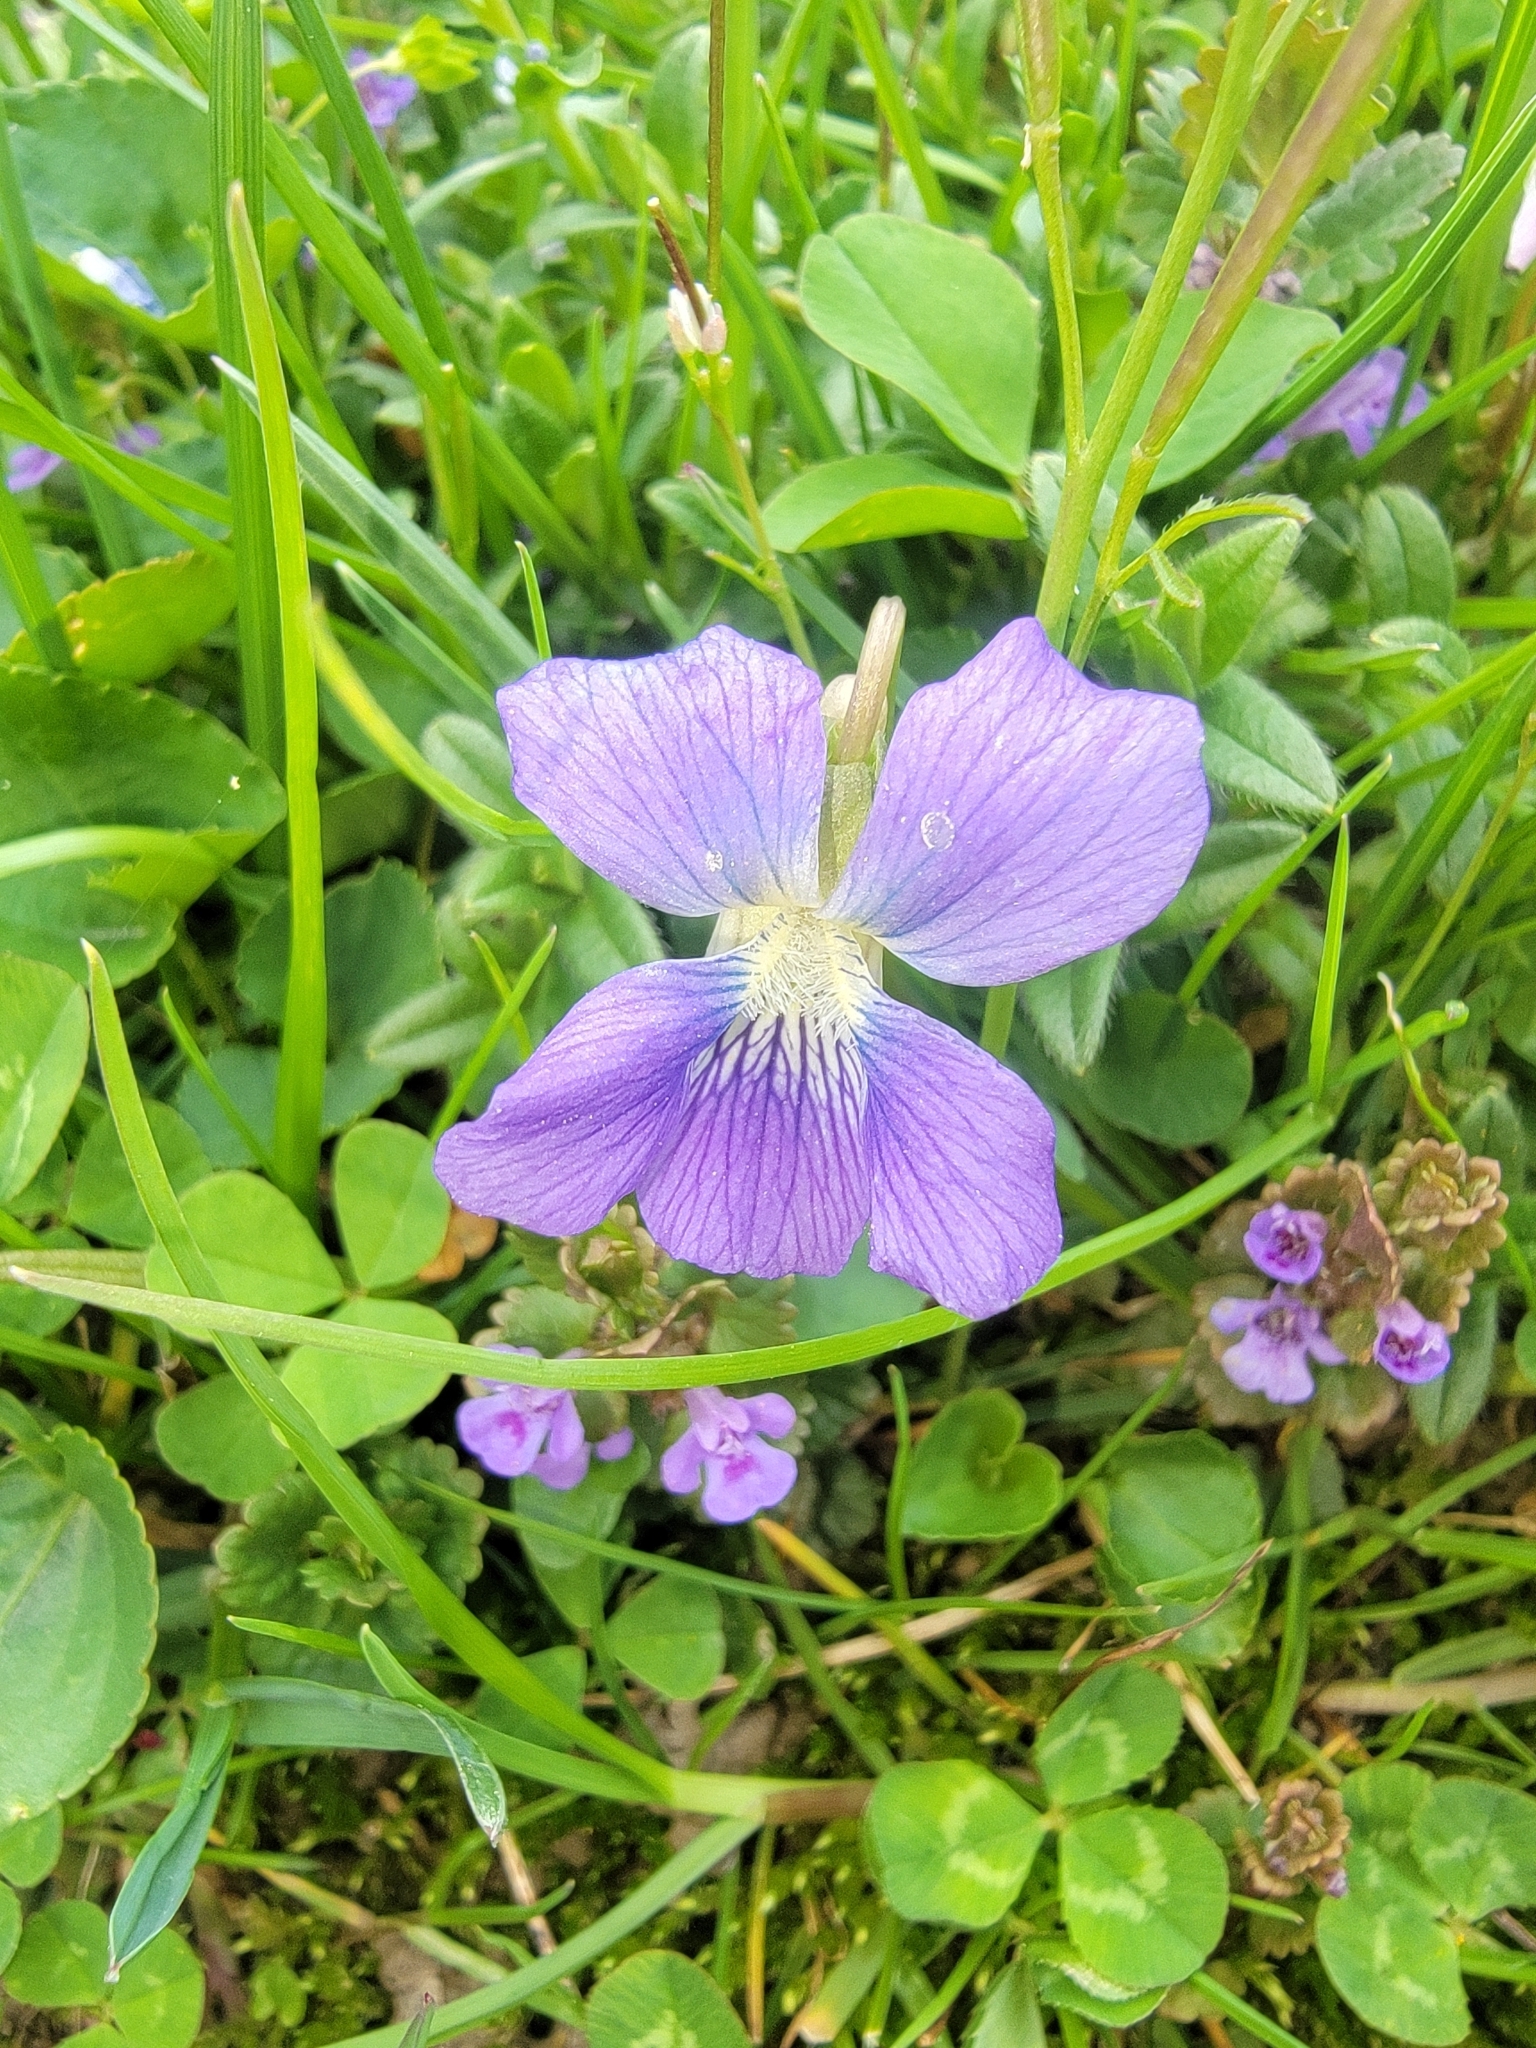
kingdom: Plantae
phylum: Tracheophyta
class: Magnoliopsida
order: Malpighiales
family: Violaceae
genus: Viola
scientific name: Viola sororia
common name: Dooryard violet
